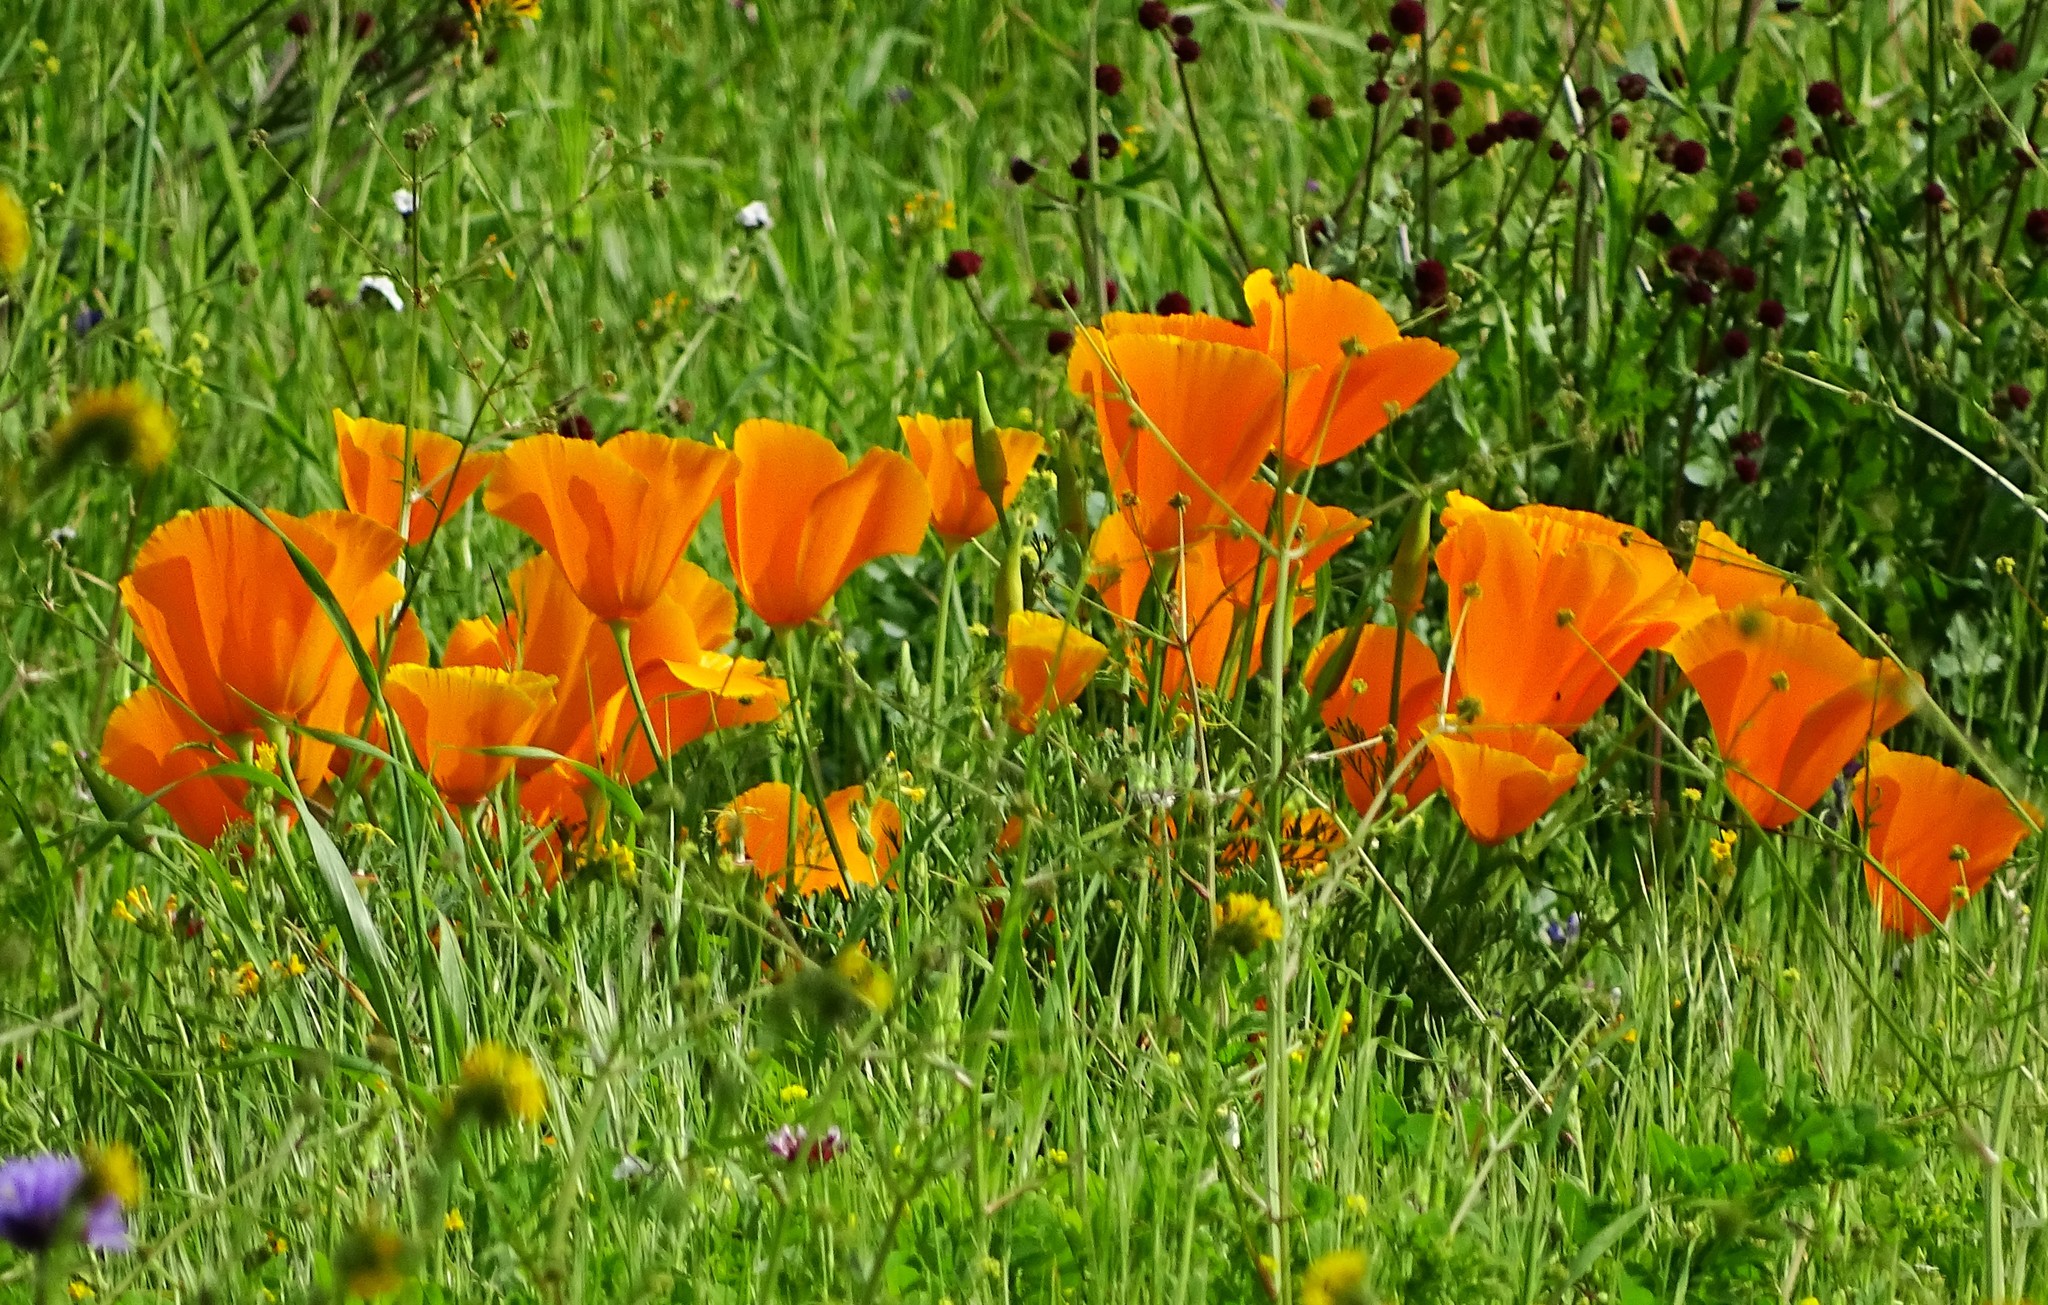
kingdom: Plantae
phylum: Tracheophyta
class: Magnoliopsida
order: Ranunculales
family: Papaveraceae
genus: Eschscholzia
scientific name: Eschscholzia californica
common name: California poppy
